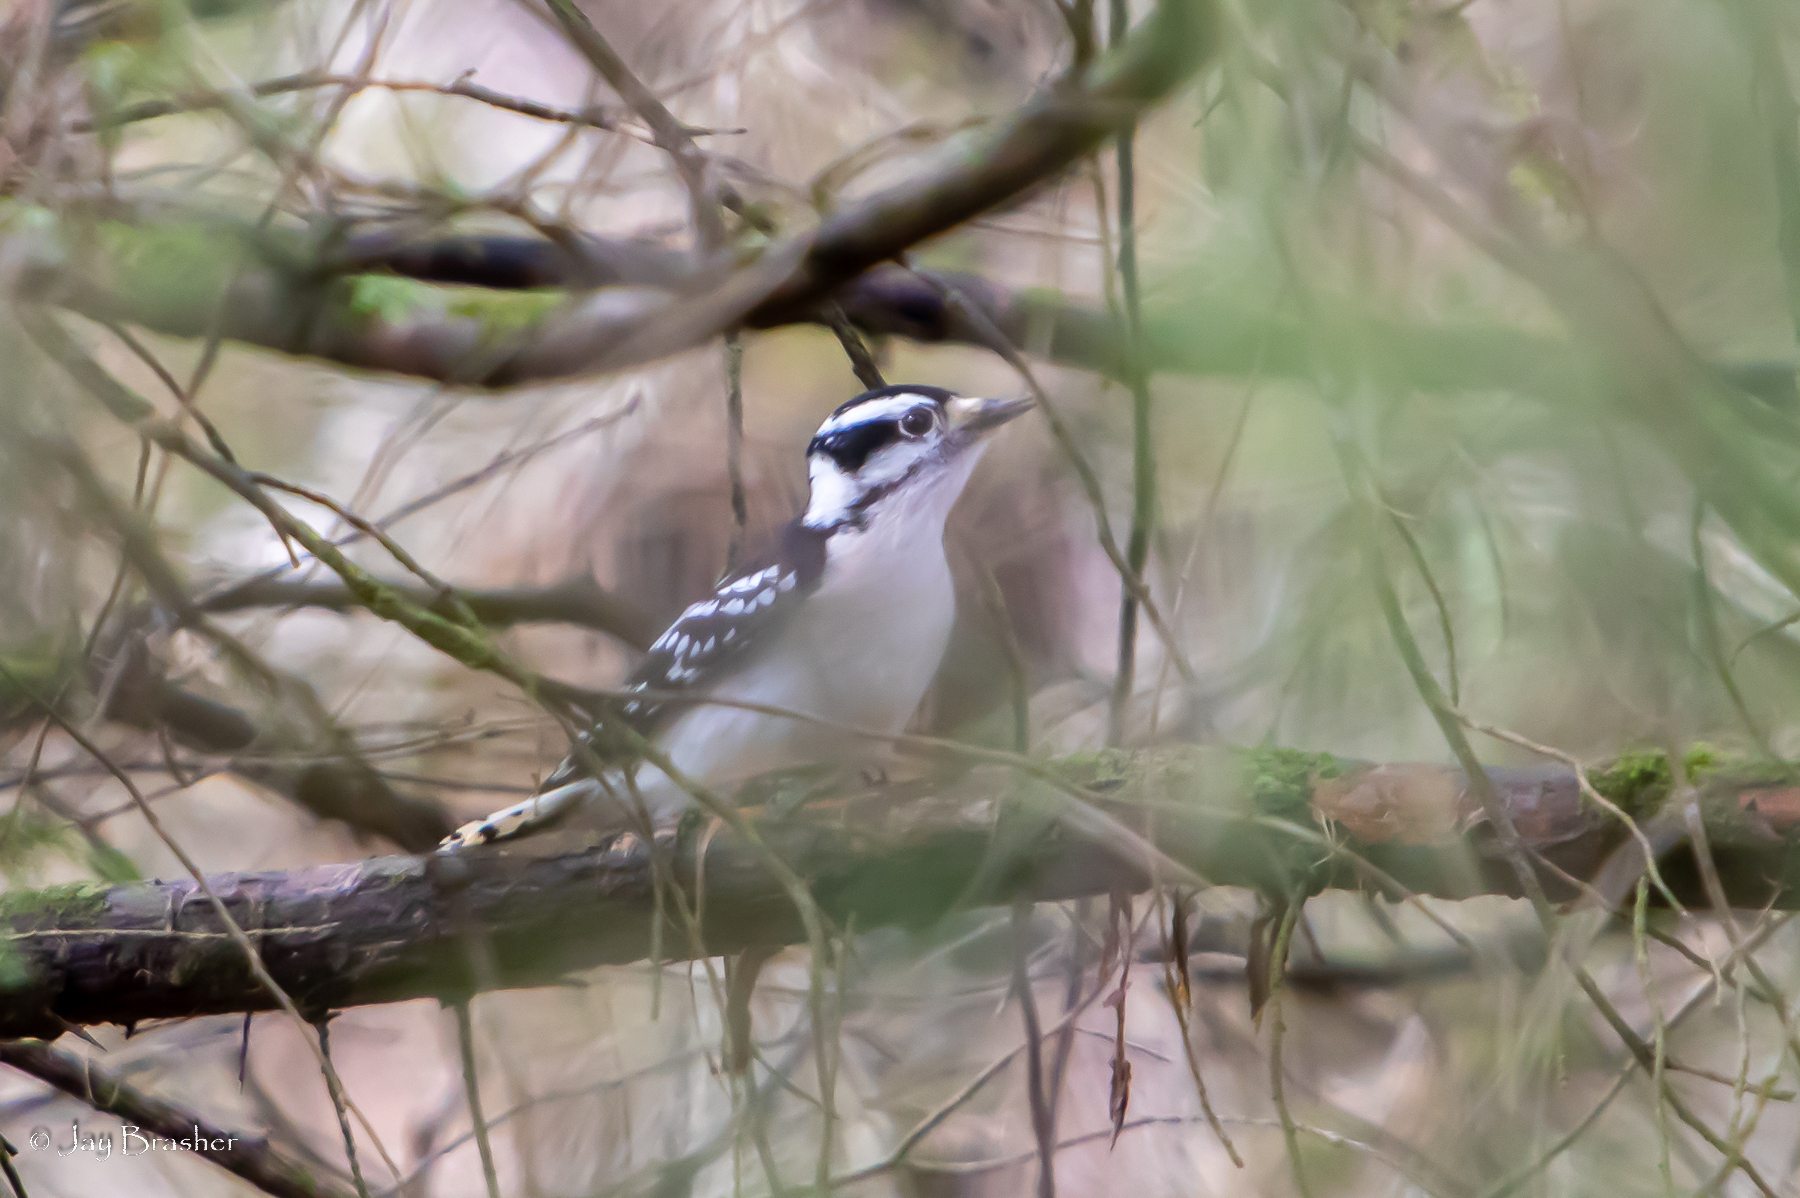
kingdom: Animalia
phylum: Chordata
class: Aves
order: Piciformes
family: Picidae
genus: Dryobates
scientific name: Dryobates pubescens
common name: Downy woodpecker
